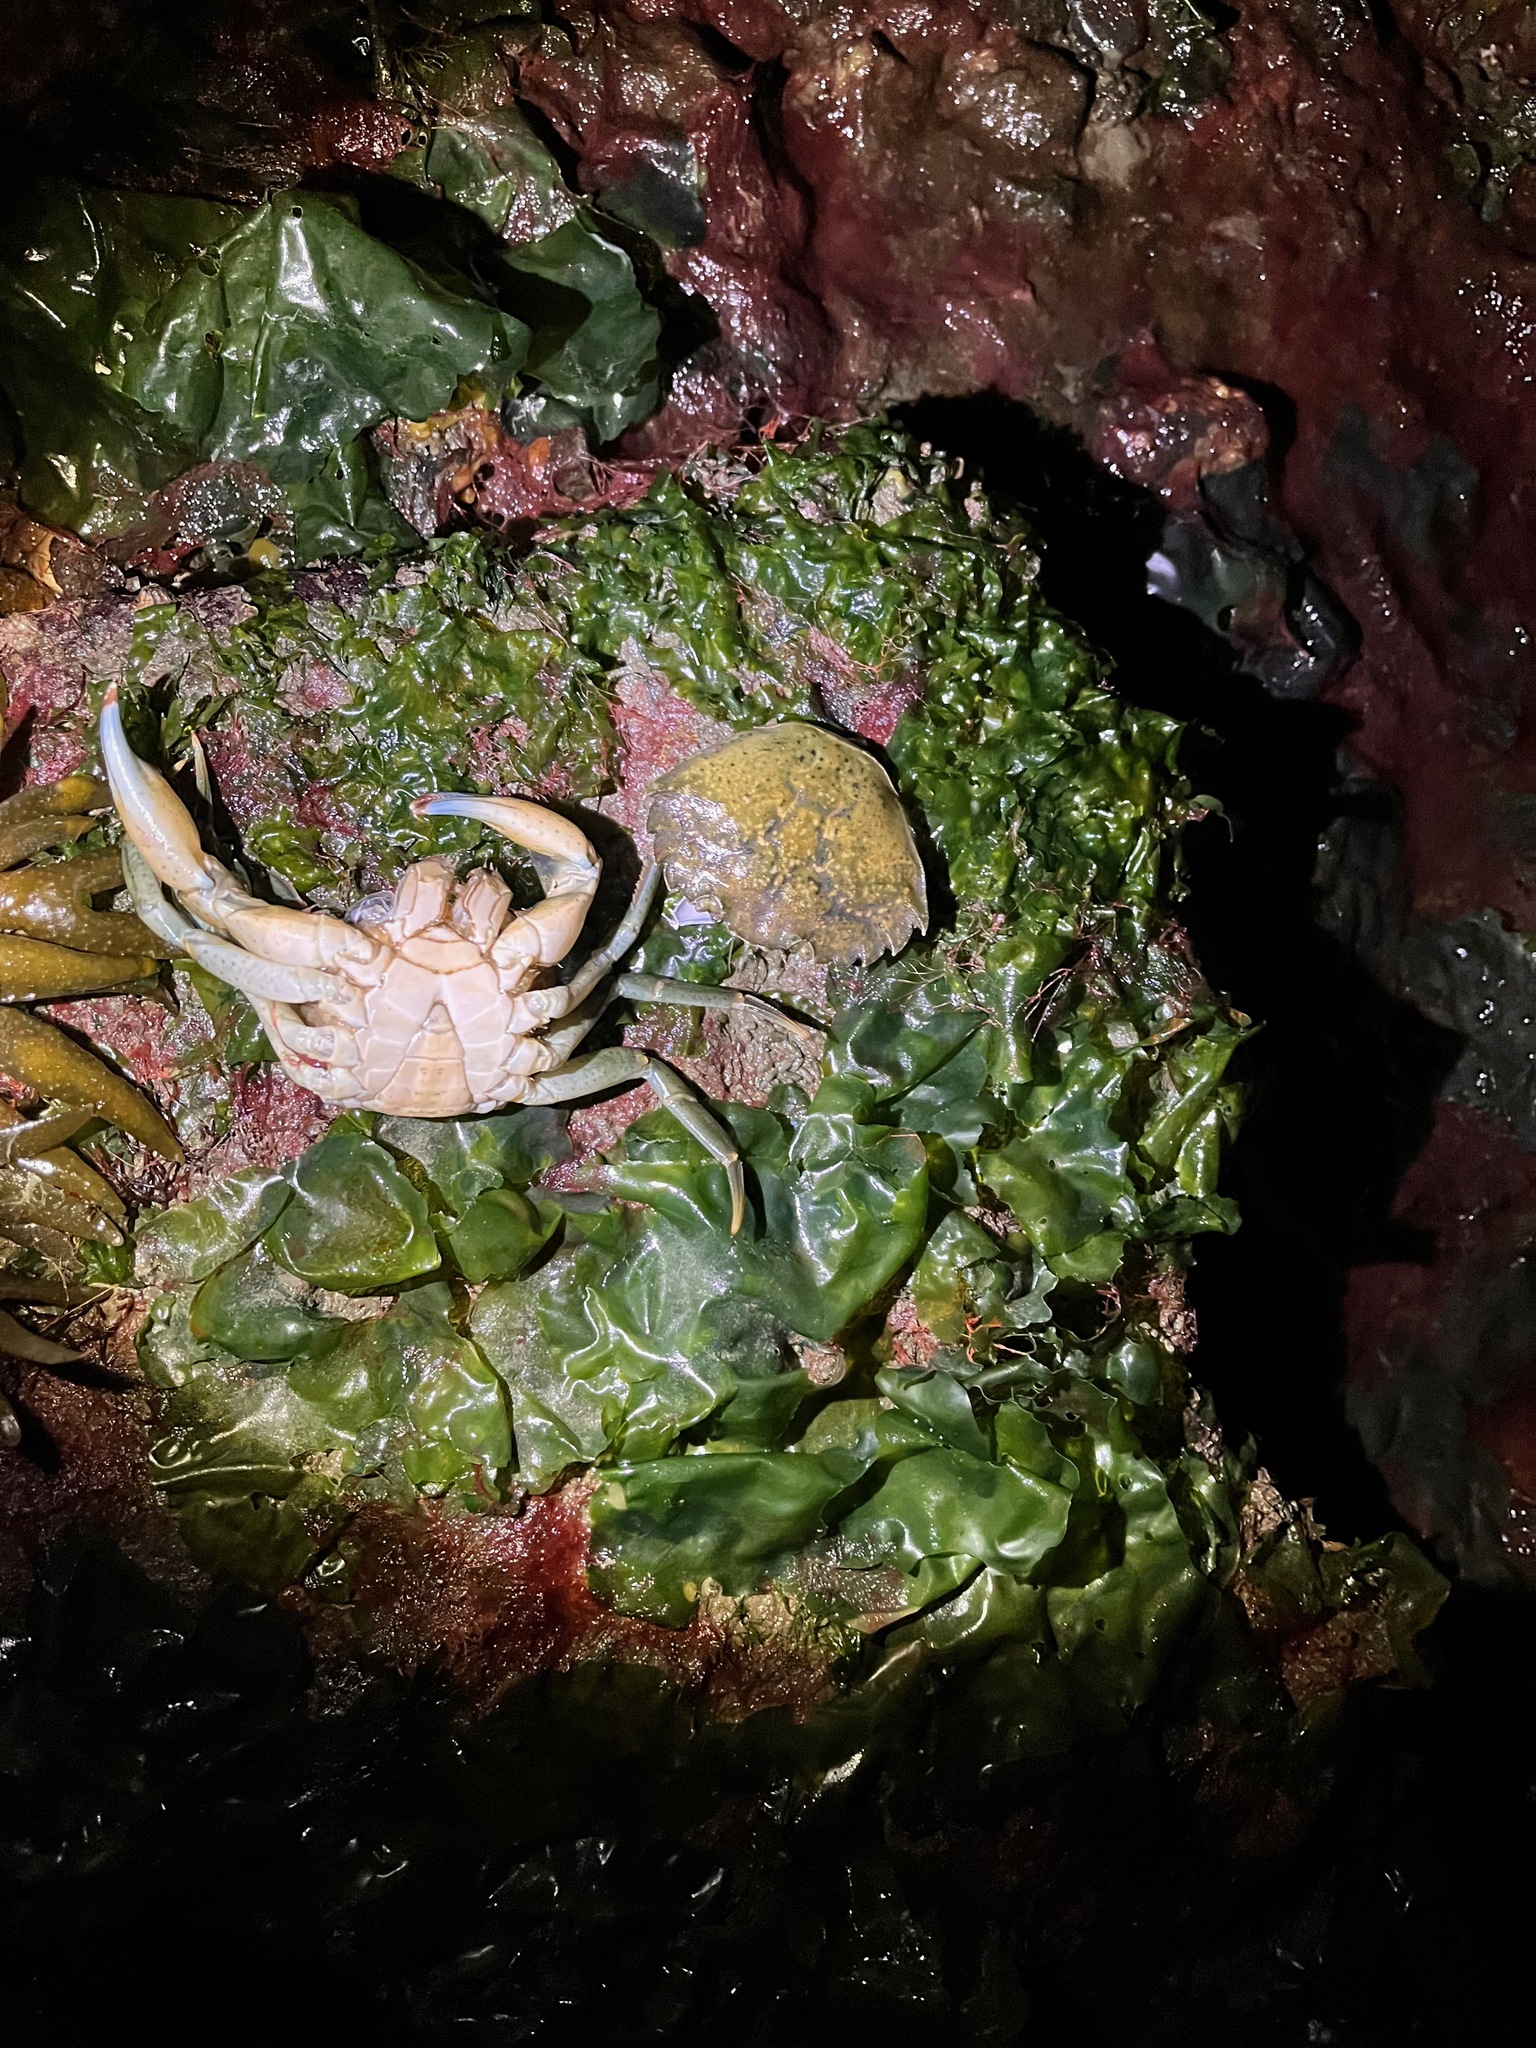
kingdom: Animalia
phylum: Arthropoda
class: Malacostraca
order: Decapoda
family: Carcinidae
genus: Carcinus
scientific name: Carcinus maenas
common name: European green crab
